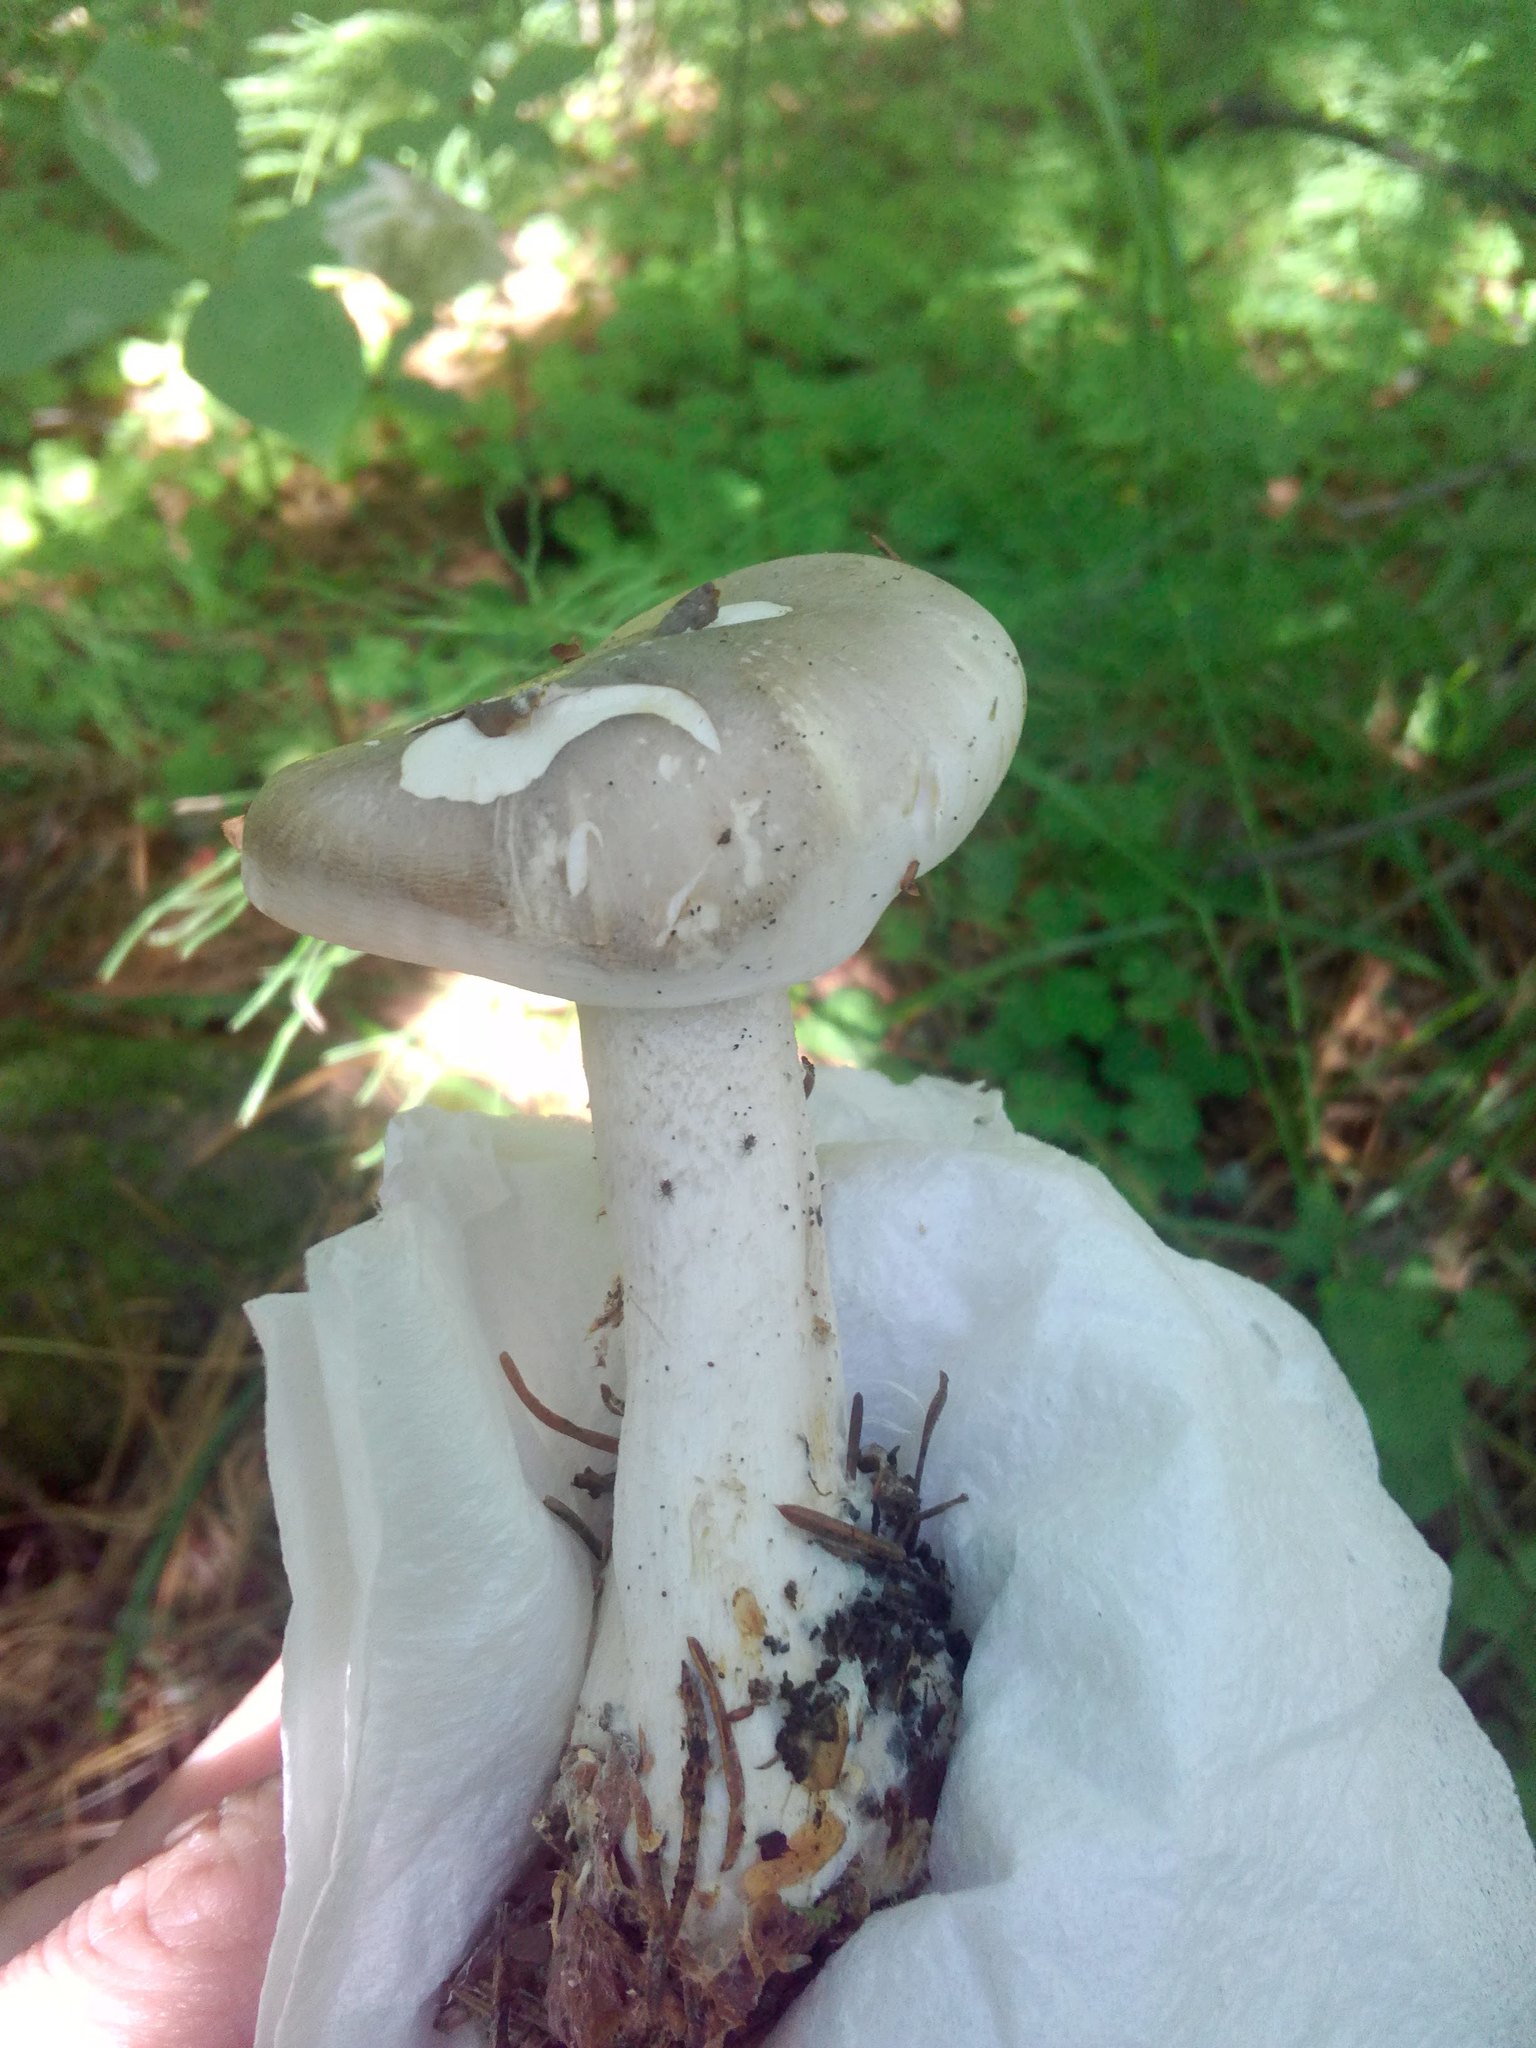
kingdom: Fungi
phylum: Basidiomycota
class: Agaricomycetes
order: Agaricales
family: Tricholomataceae
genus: Clitocybe
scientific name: Clitocybe nebularis
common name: Clouded agaric
